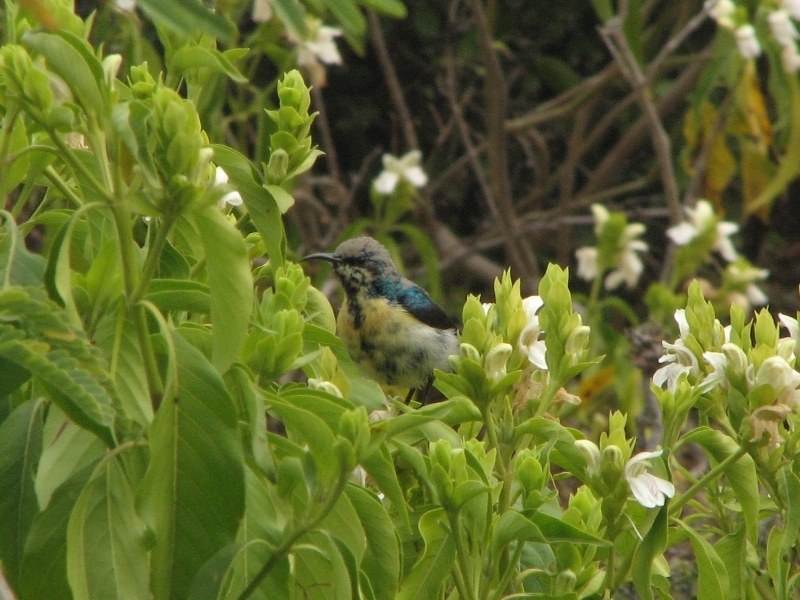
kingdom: Animalia
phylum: Chordata
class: Aves
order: Passeriformes
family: Nectariniidae
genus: Cinnyris
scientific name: Cinnyris asiaticus
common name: Purple sunbird
